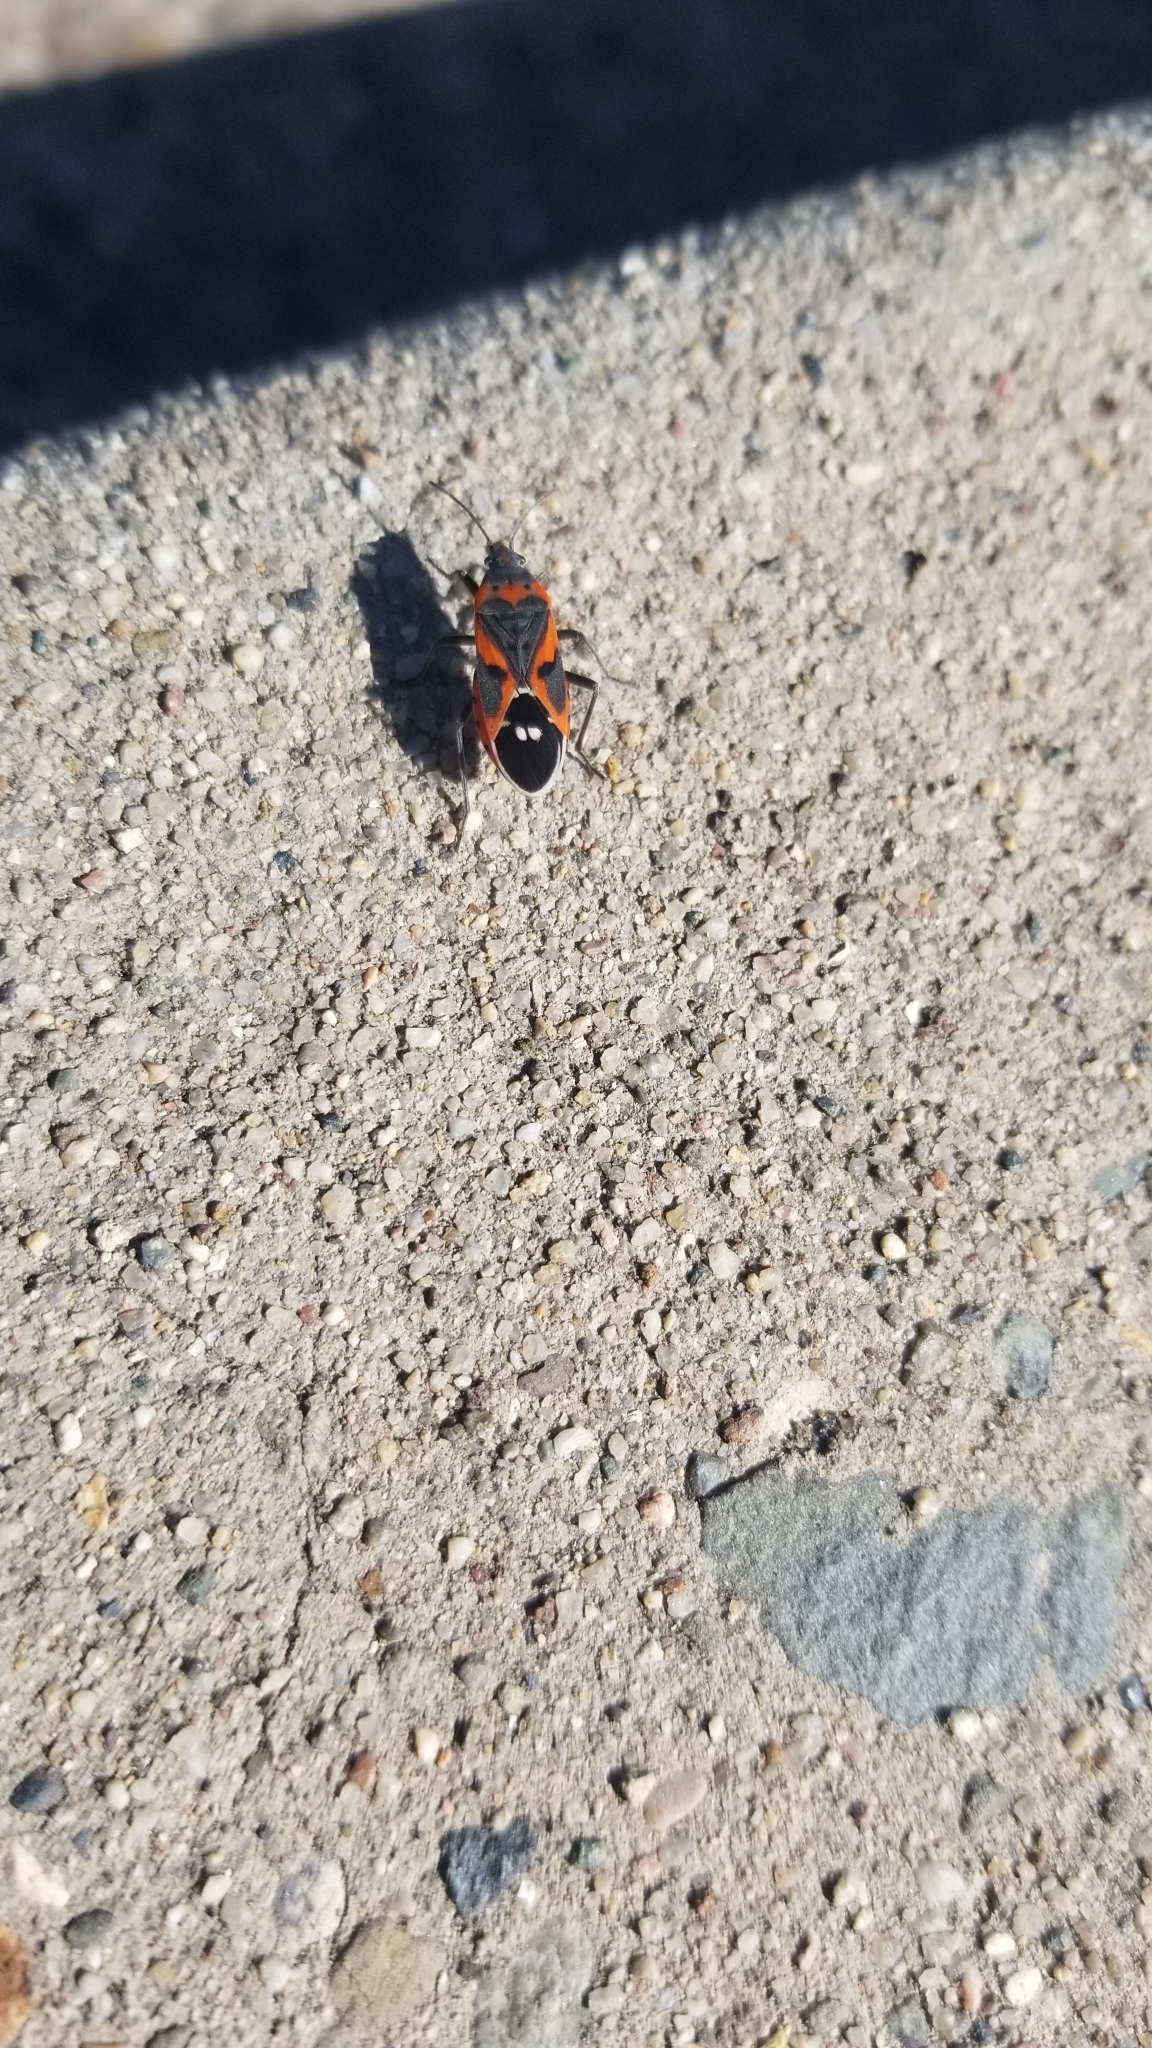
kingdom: Animalia
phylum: Arthropoda
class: Insecta
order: Hemiptera
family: Lygaeidae
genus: Lygaeus
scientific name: Lygaeus kalmii
